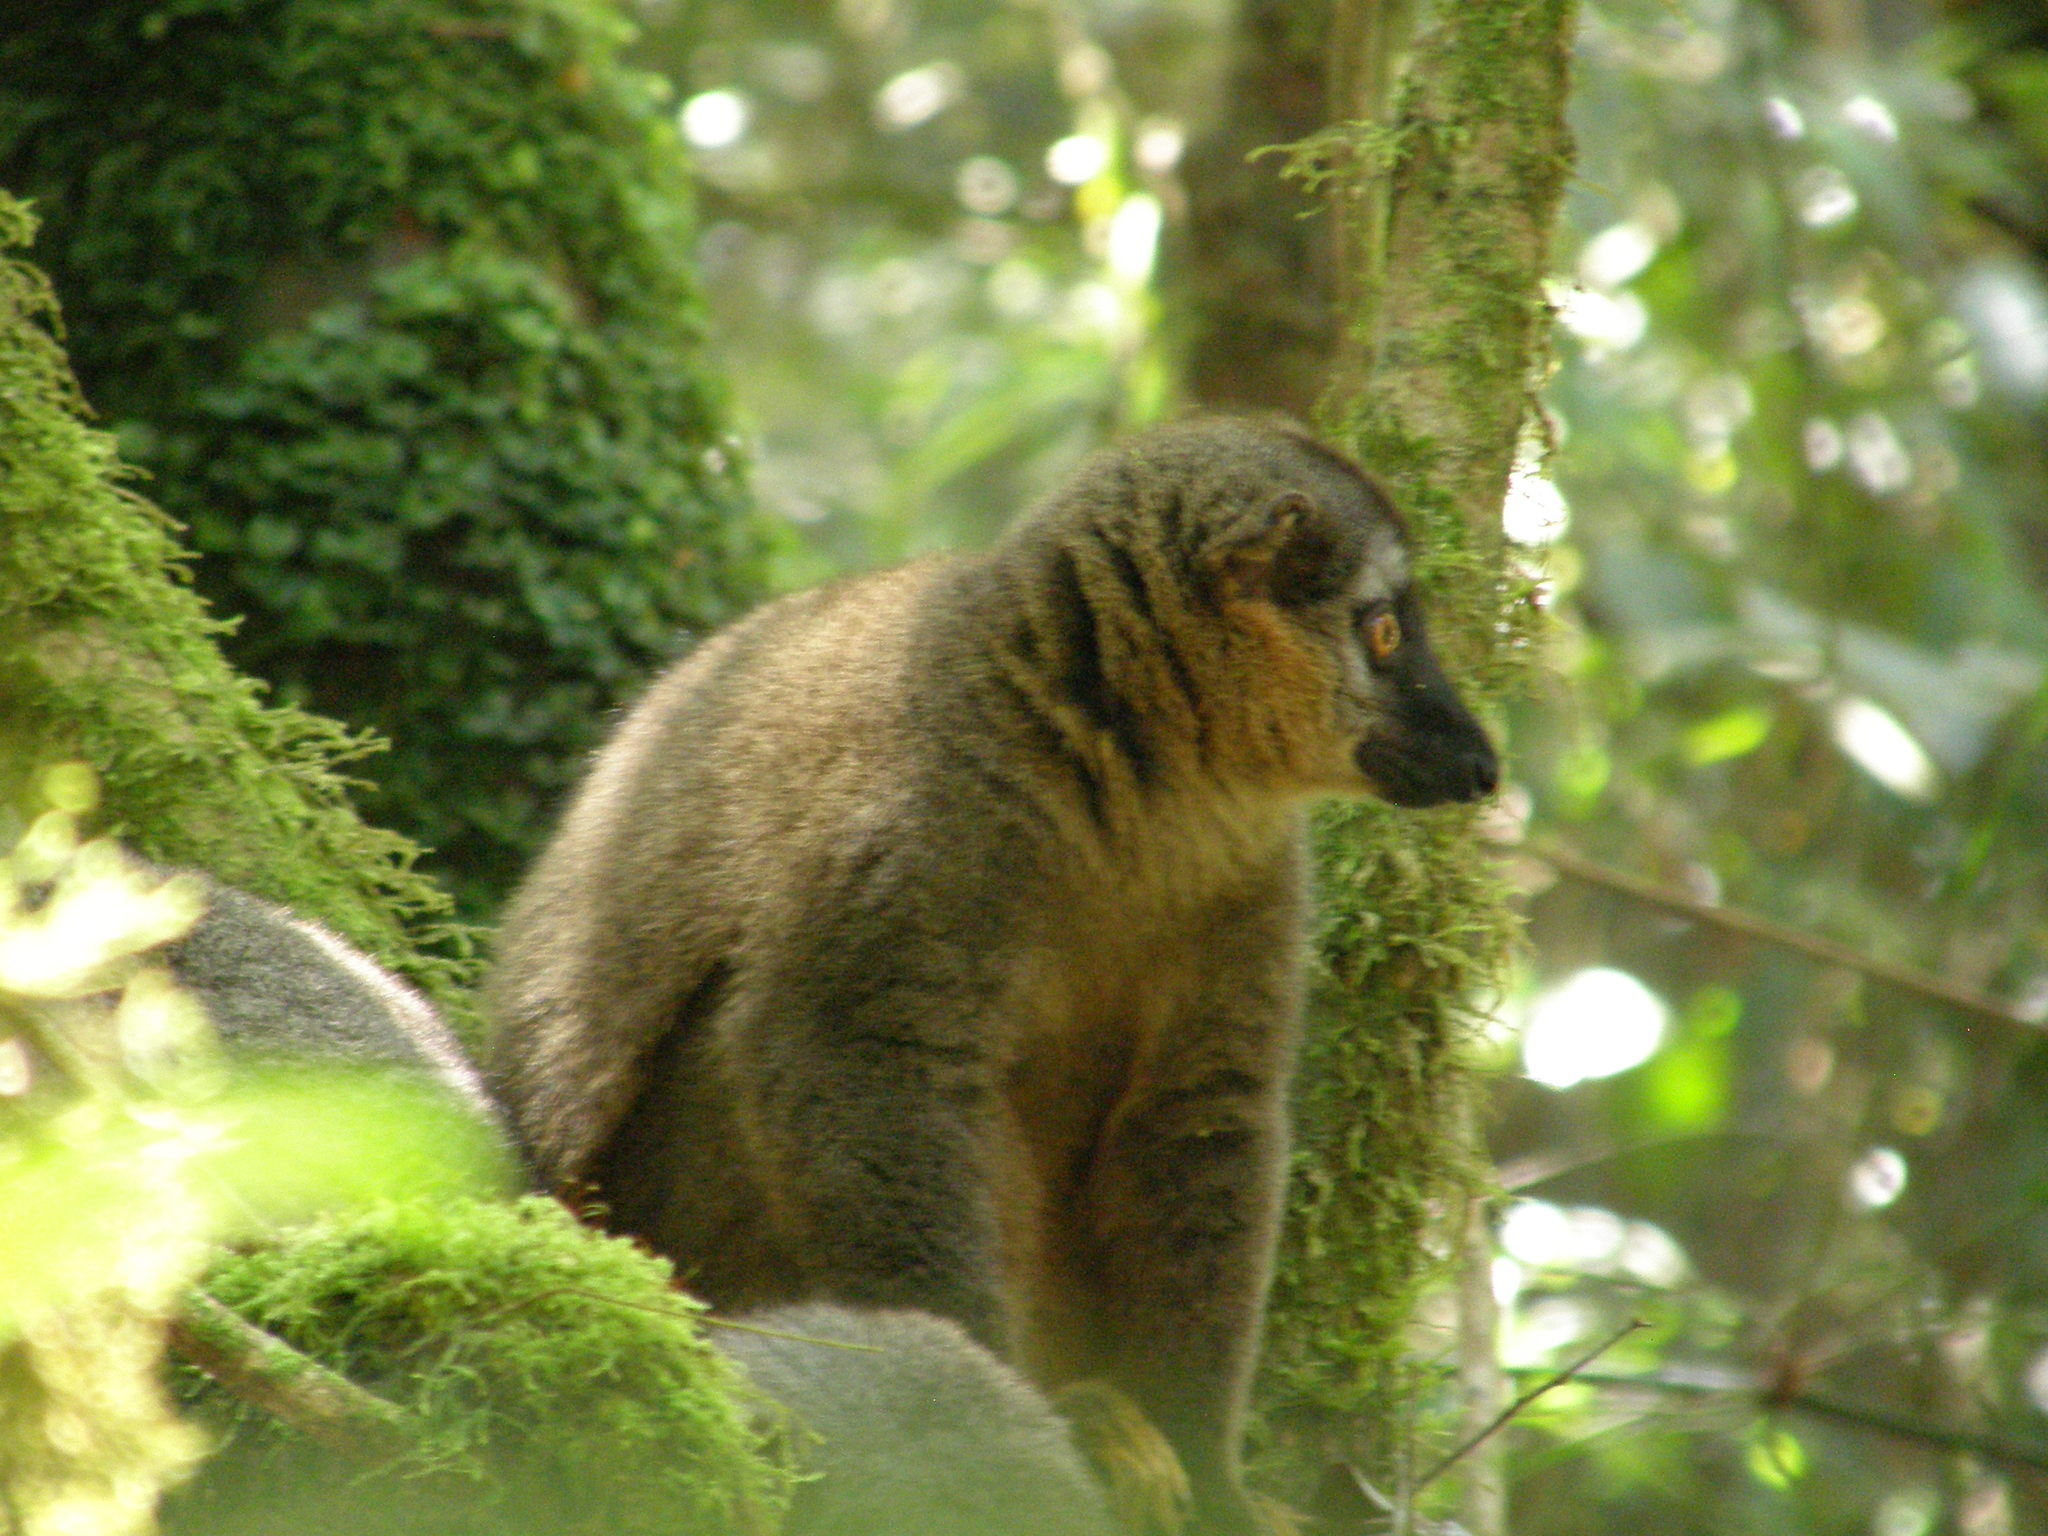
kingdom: Animalia
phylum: Chordata
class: Mammalia
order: Primates
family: Lemuridae
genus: Eulemur
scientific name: Eulemur rufifrons
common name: Red-fronted brown lemur
